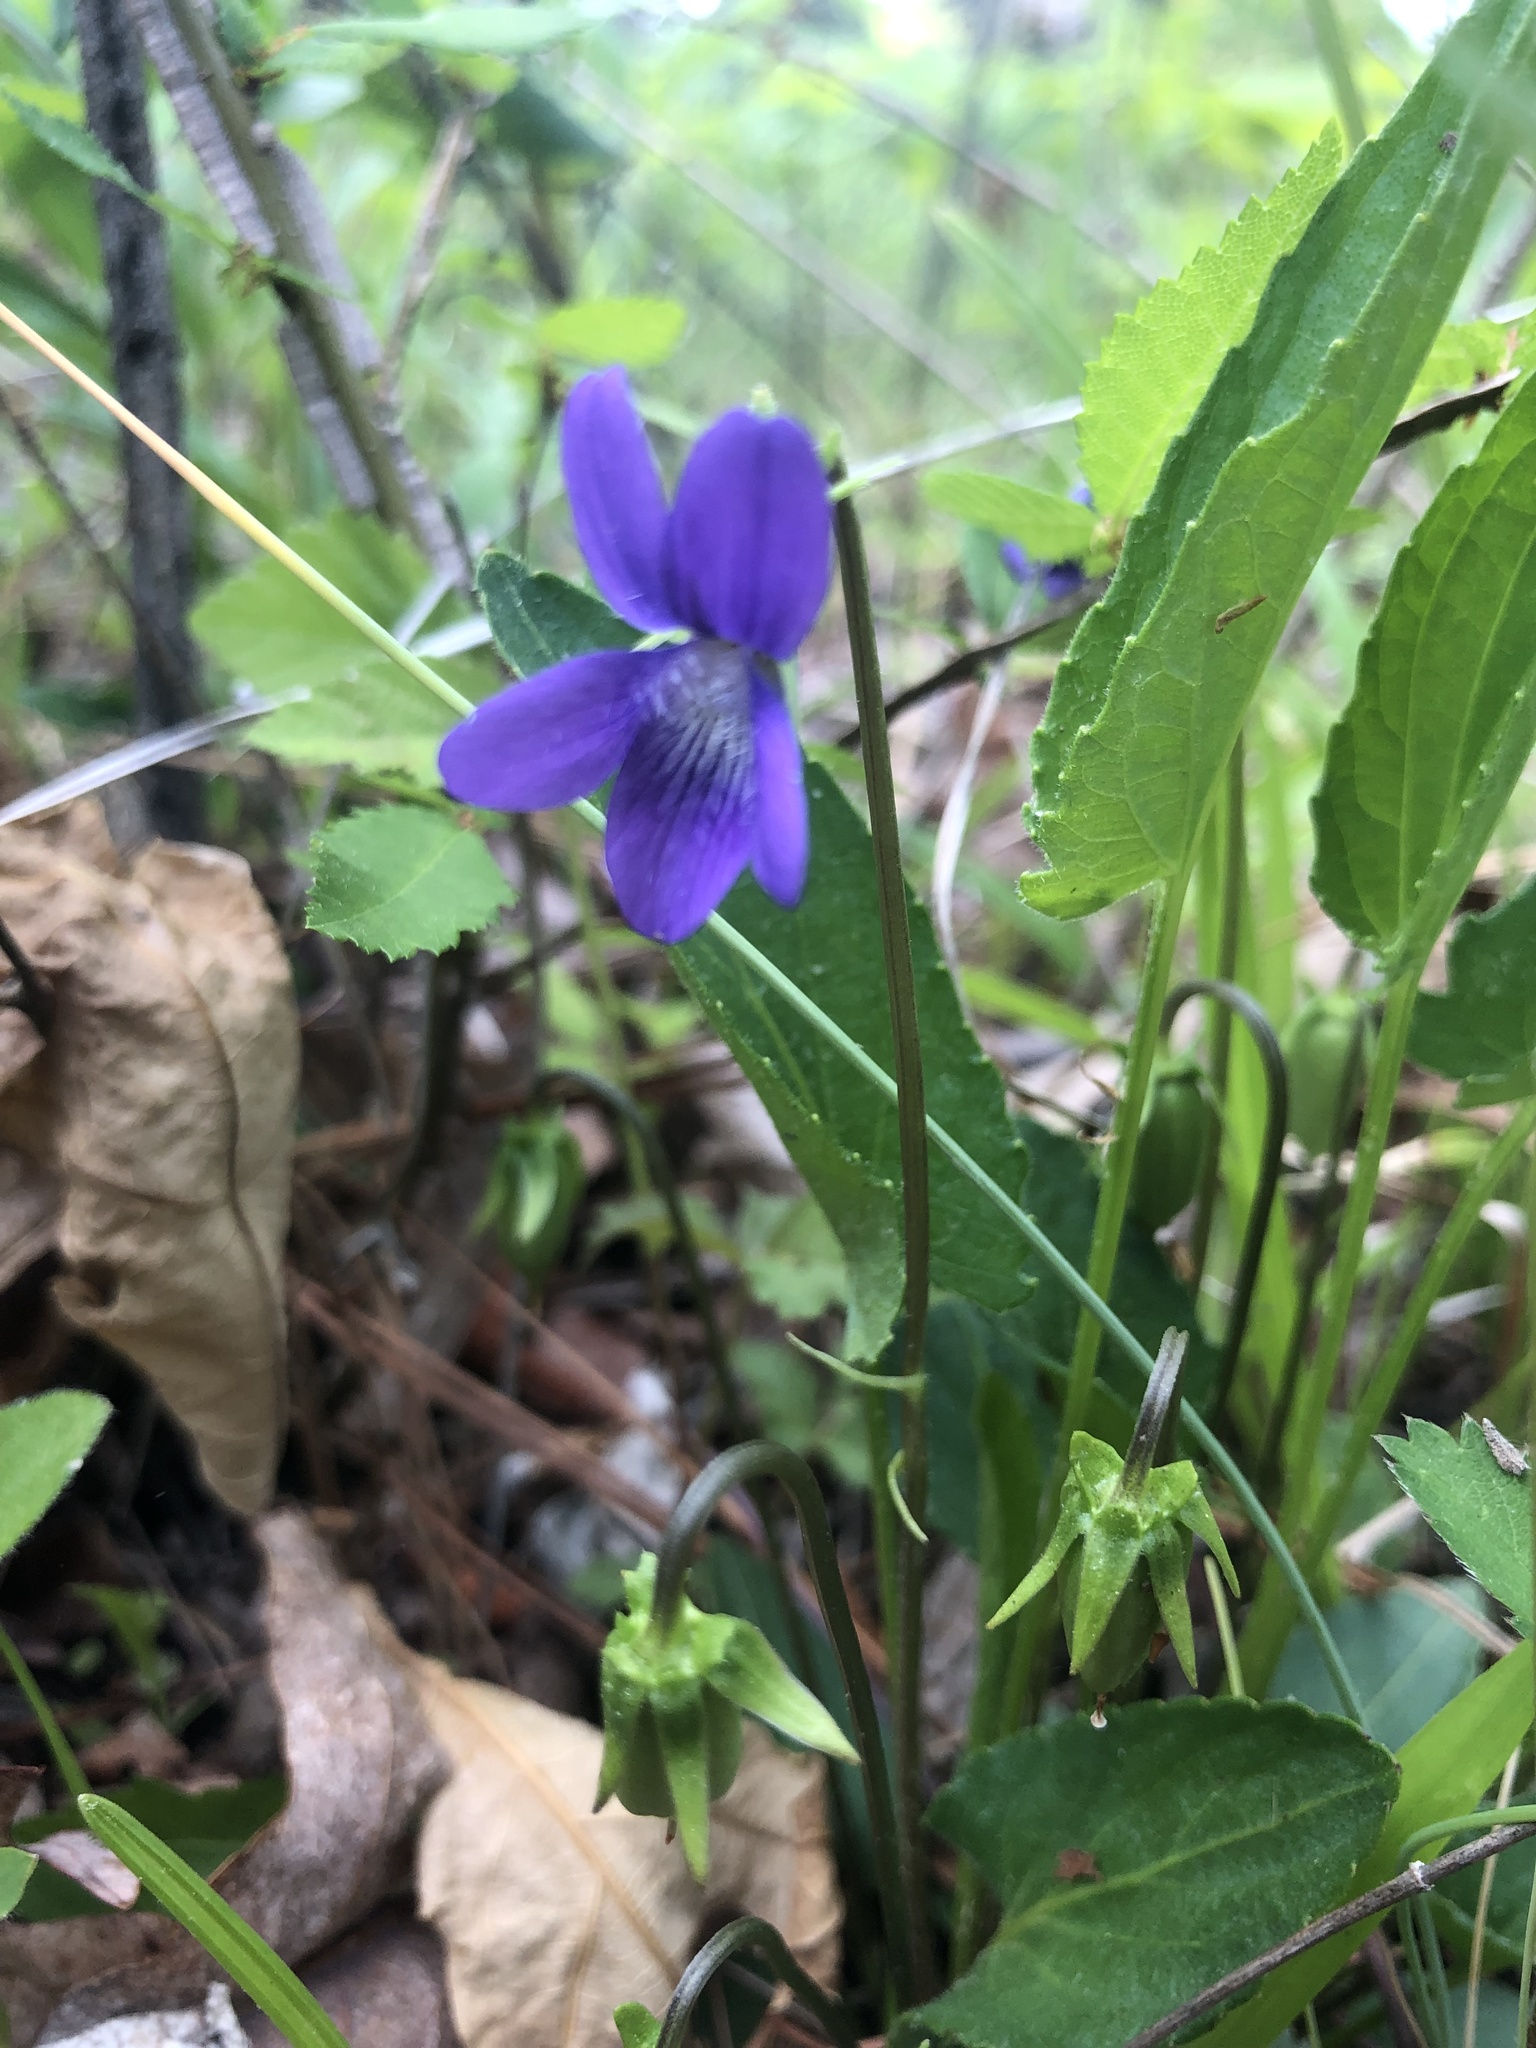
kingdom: Plantae
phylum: Tracheophyta
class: Magnoliopsida
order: Malpighiales
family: Violaceae
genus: Viola
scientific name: Viola emarginata
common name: Triangle-leaved violet
